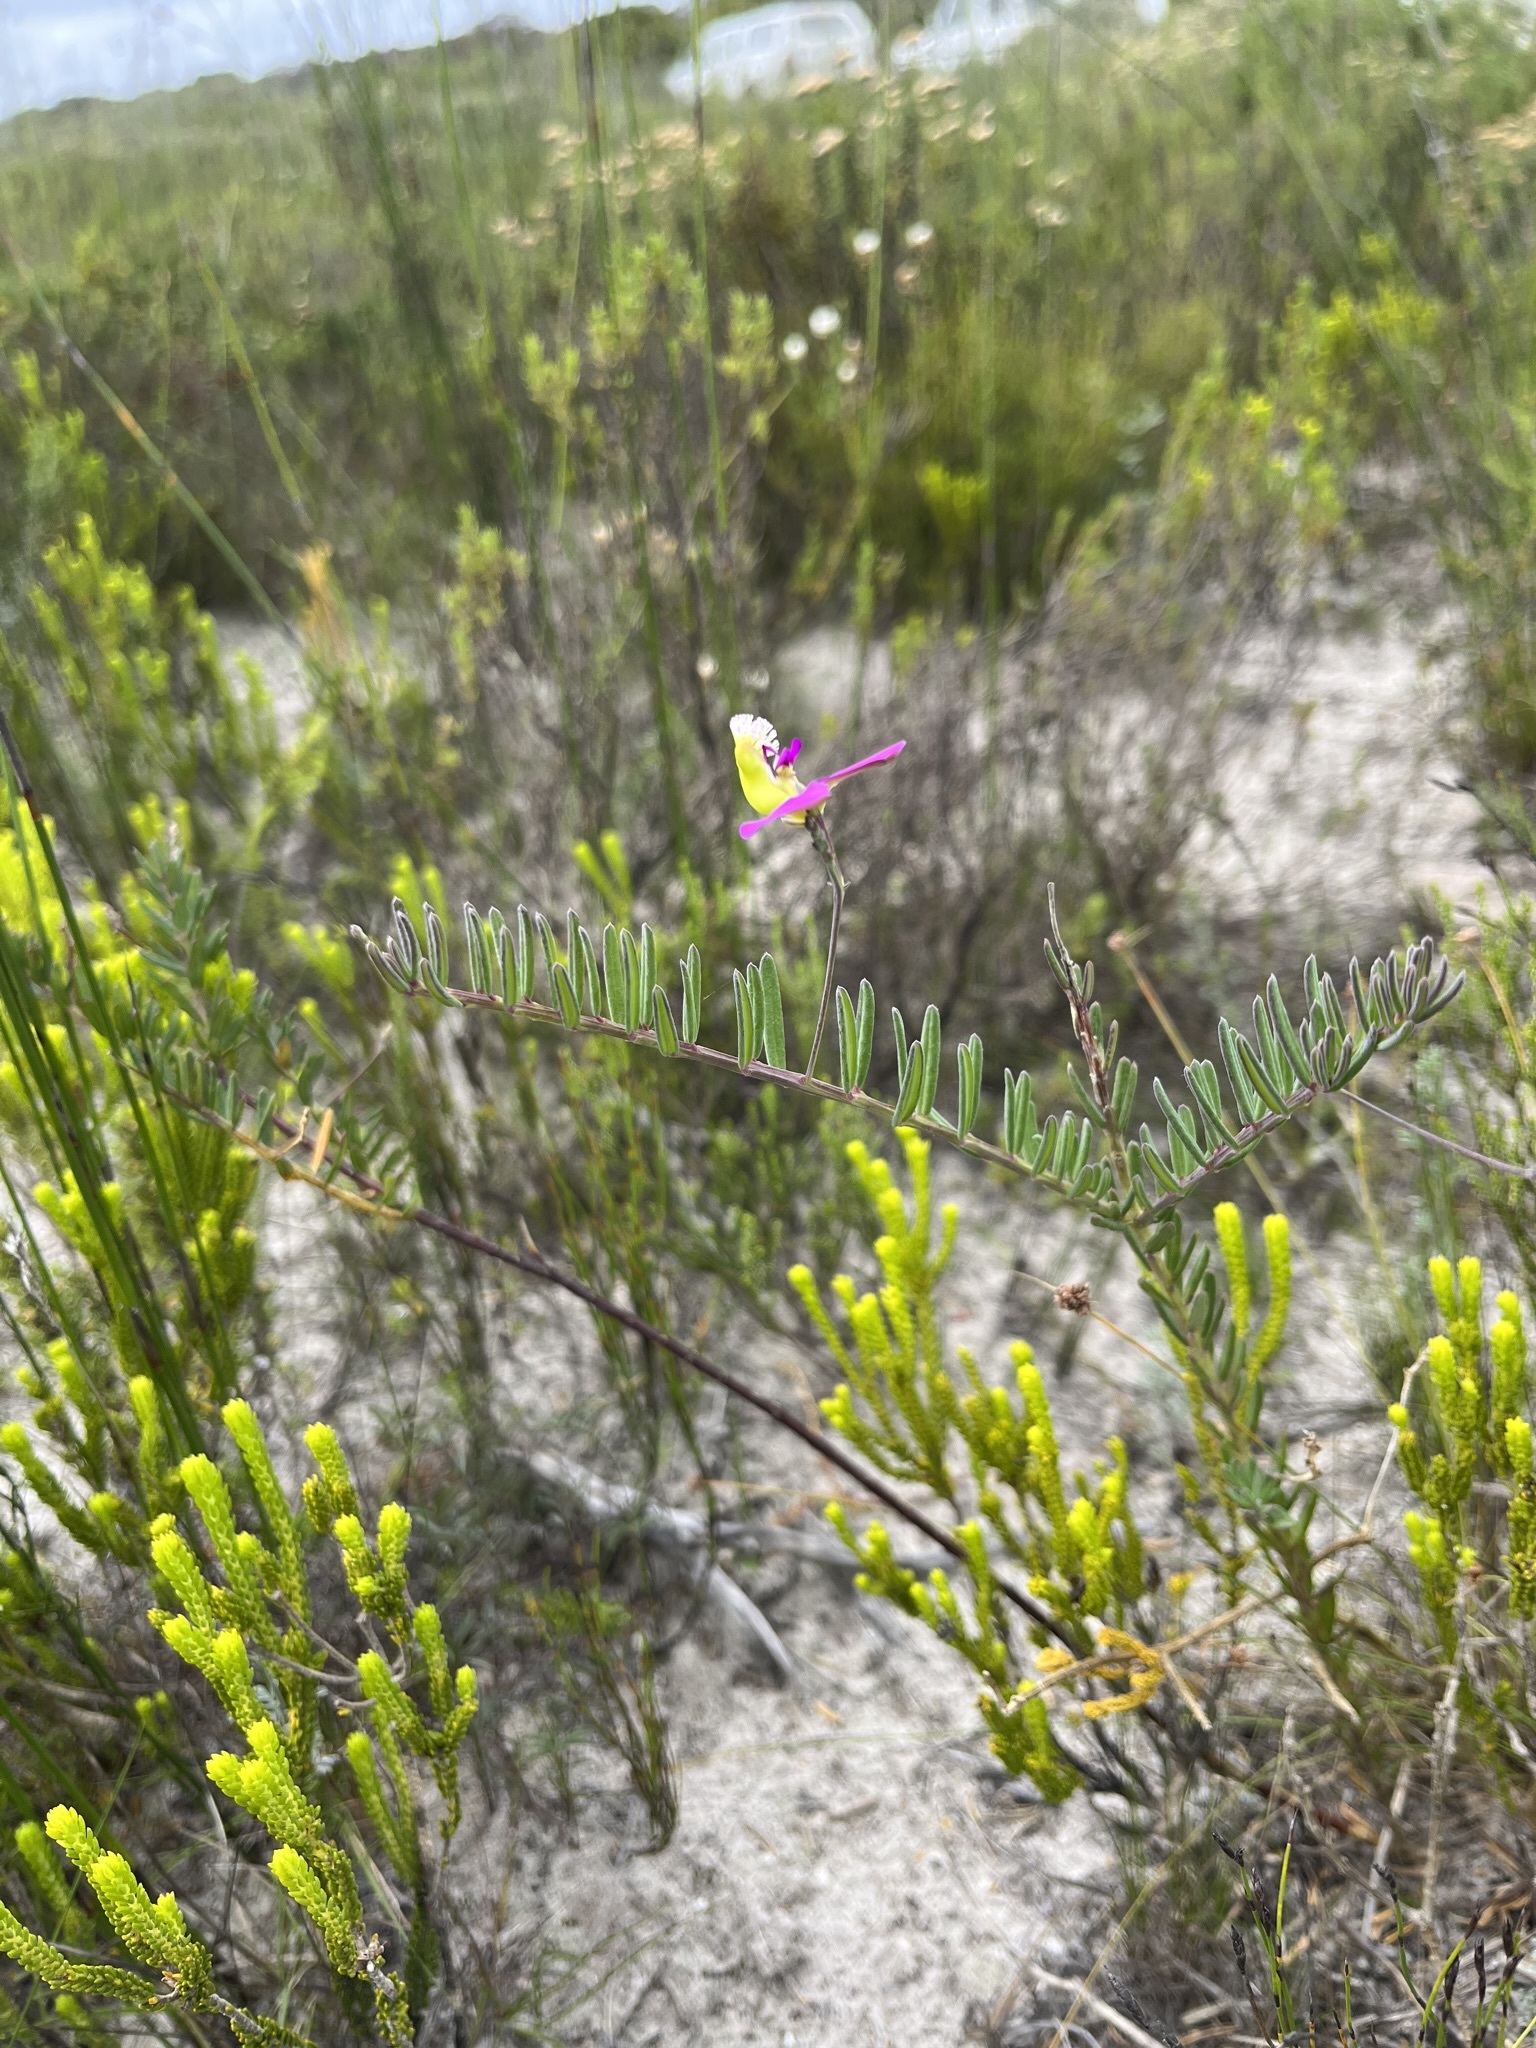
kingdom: Plantae
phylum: Tracheophyta
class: Magnoliopsida
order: Fabales
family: Polygalaceae
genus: Polygala
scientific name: Polygala peduncularis
